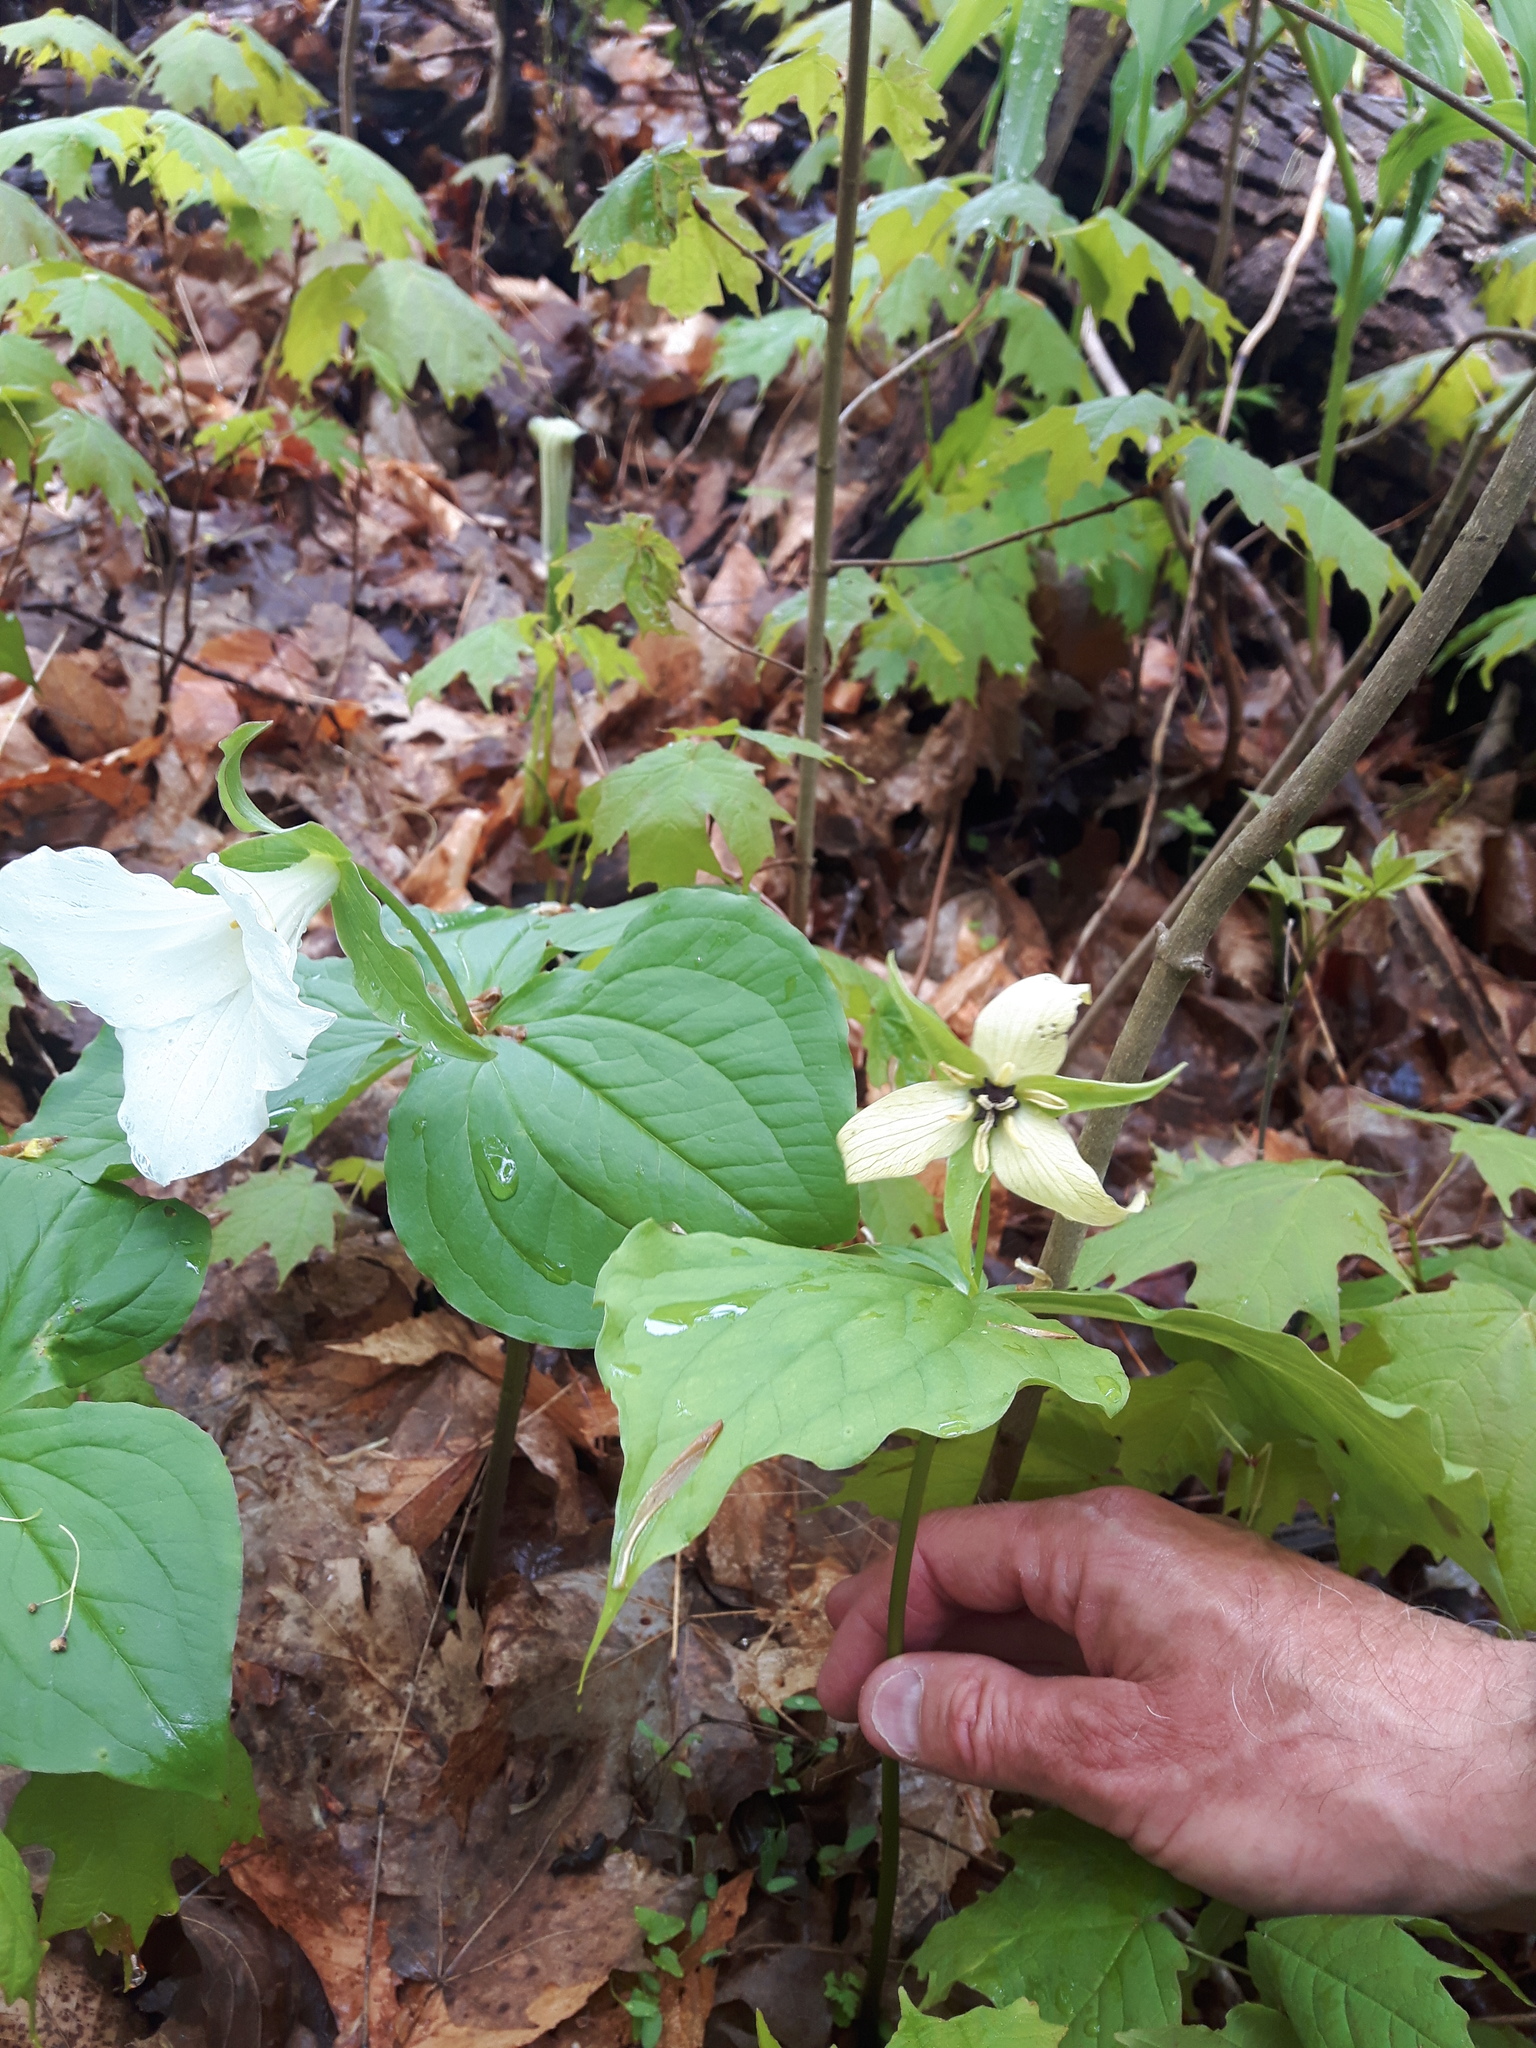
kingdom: Plantae
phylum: Tracheophyta
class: Liliopsida
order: Liliales
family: Melanthiaceae
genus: Trillium
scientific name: Trillium erectum
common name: Purple trillium
